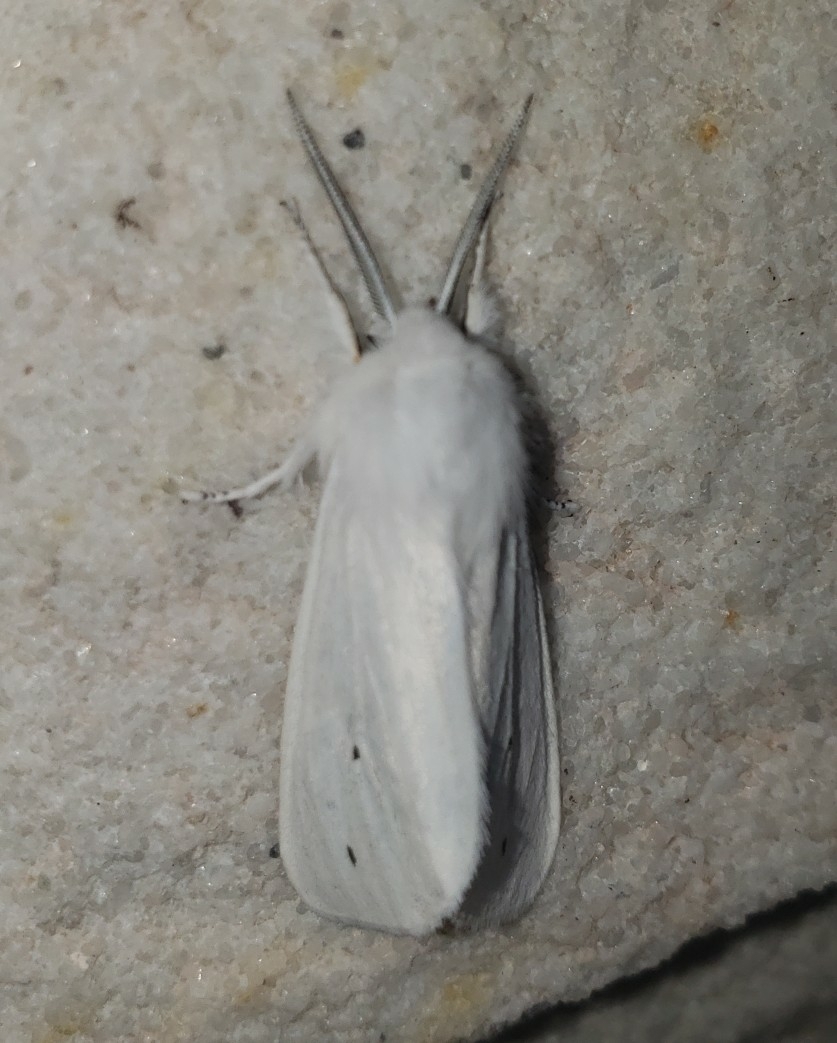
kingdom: Animalia
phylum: Arthropoda
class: Insecta
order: Lepidoptera
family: Erebidae
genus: Spilosoma
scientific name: Spilosoma virginica
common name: Virginia tiger moth
